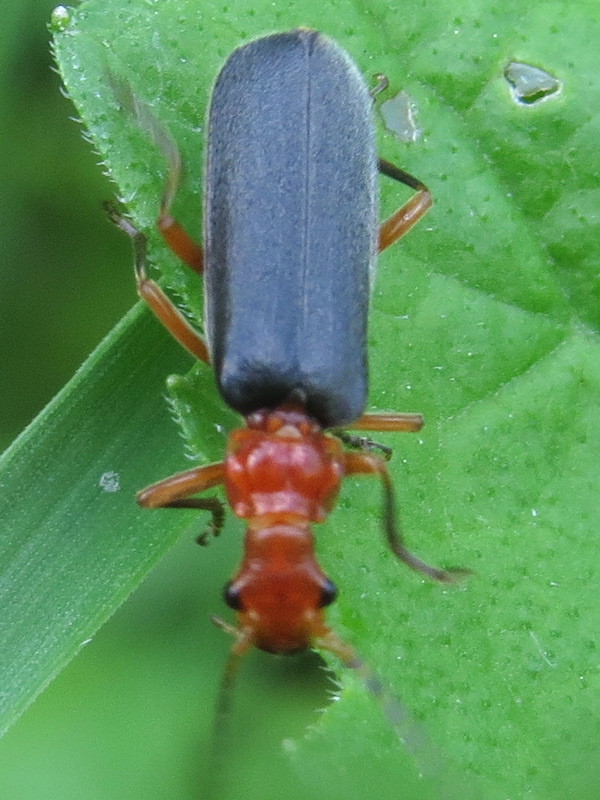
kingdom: Animalia
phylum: Arthropoda
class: Insecta
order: Coleoptera
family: Cantharidae
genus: Podabrus
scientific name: Podabrus tomentosus
